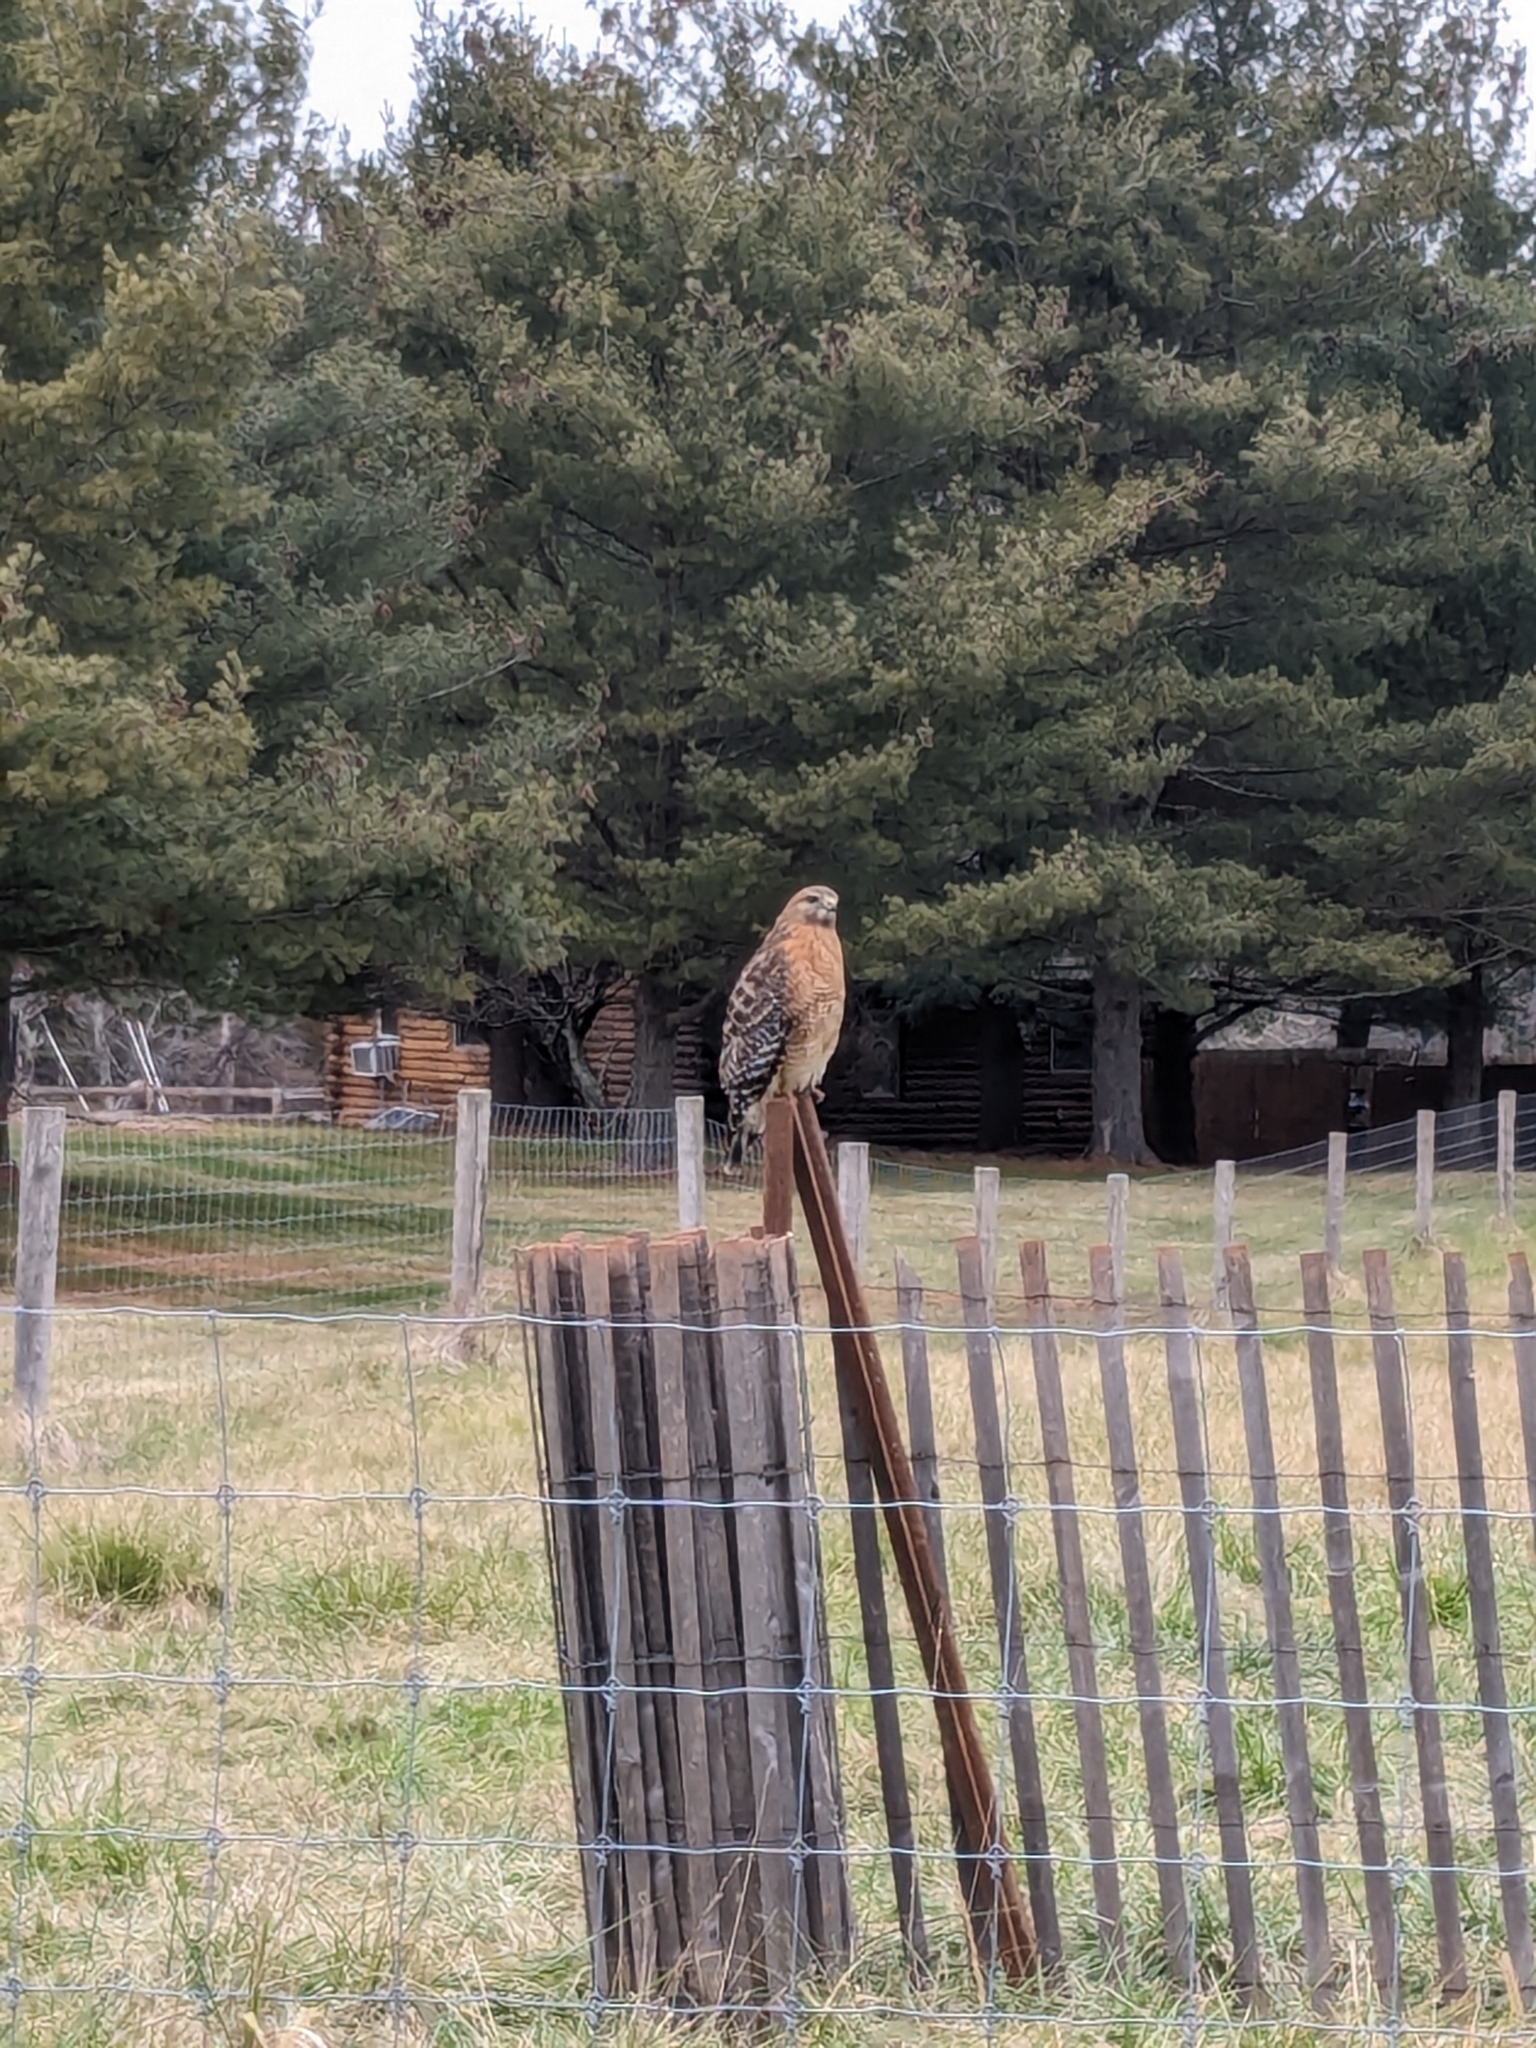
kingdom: Animalia
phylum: Chordata
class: Aves
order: Accipitriformes
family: Accipitridae
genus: Buteo
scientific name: Buteo lineatus
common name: Red-shouldered hawk
